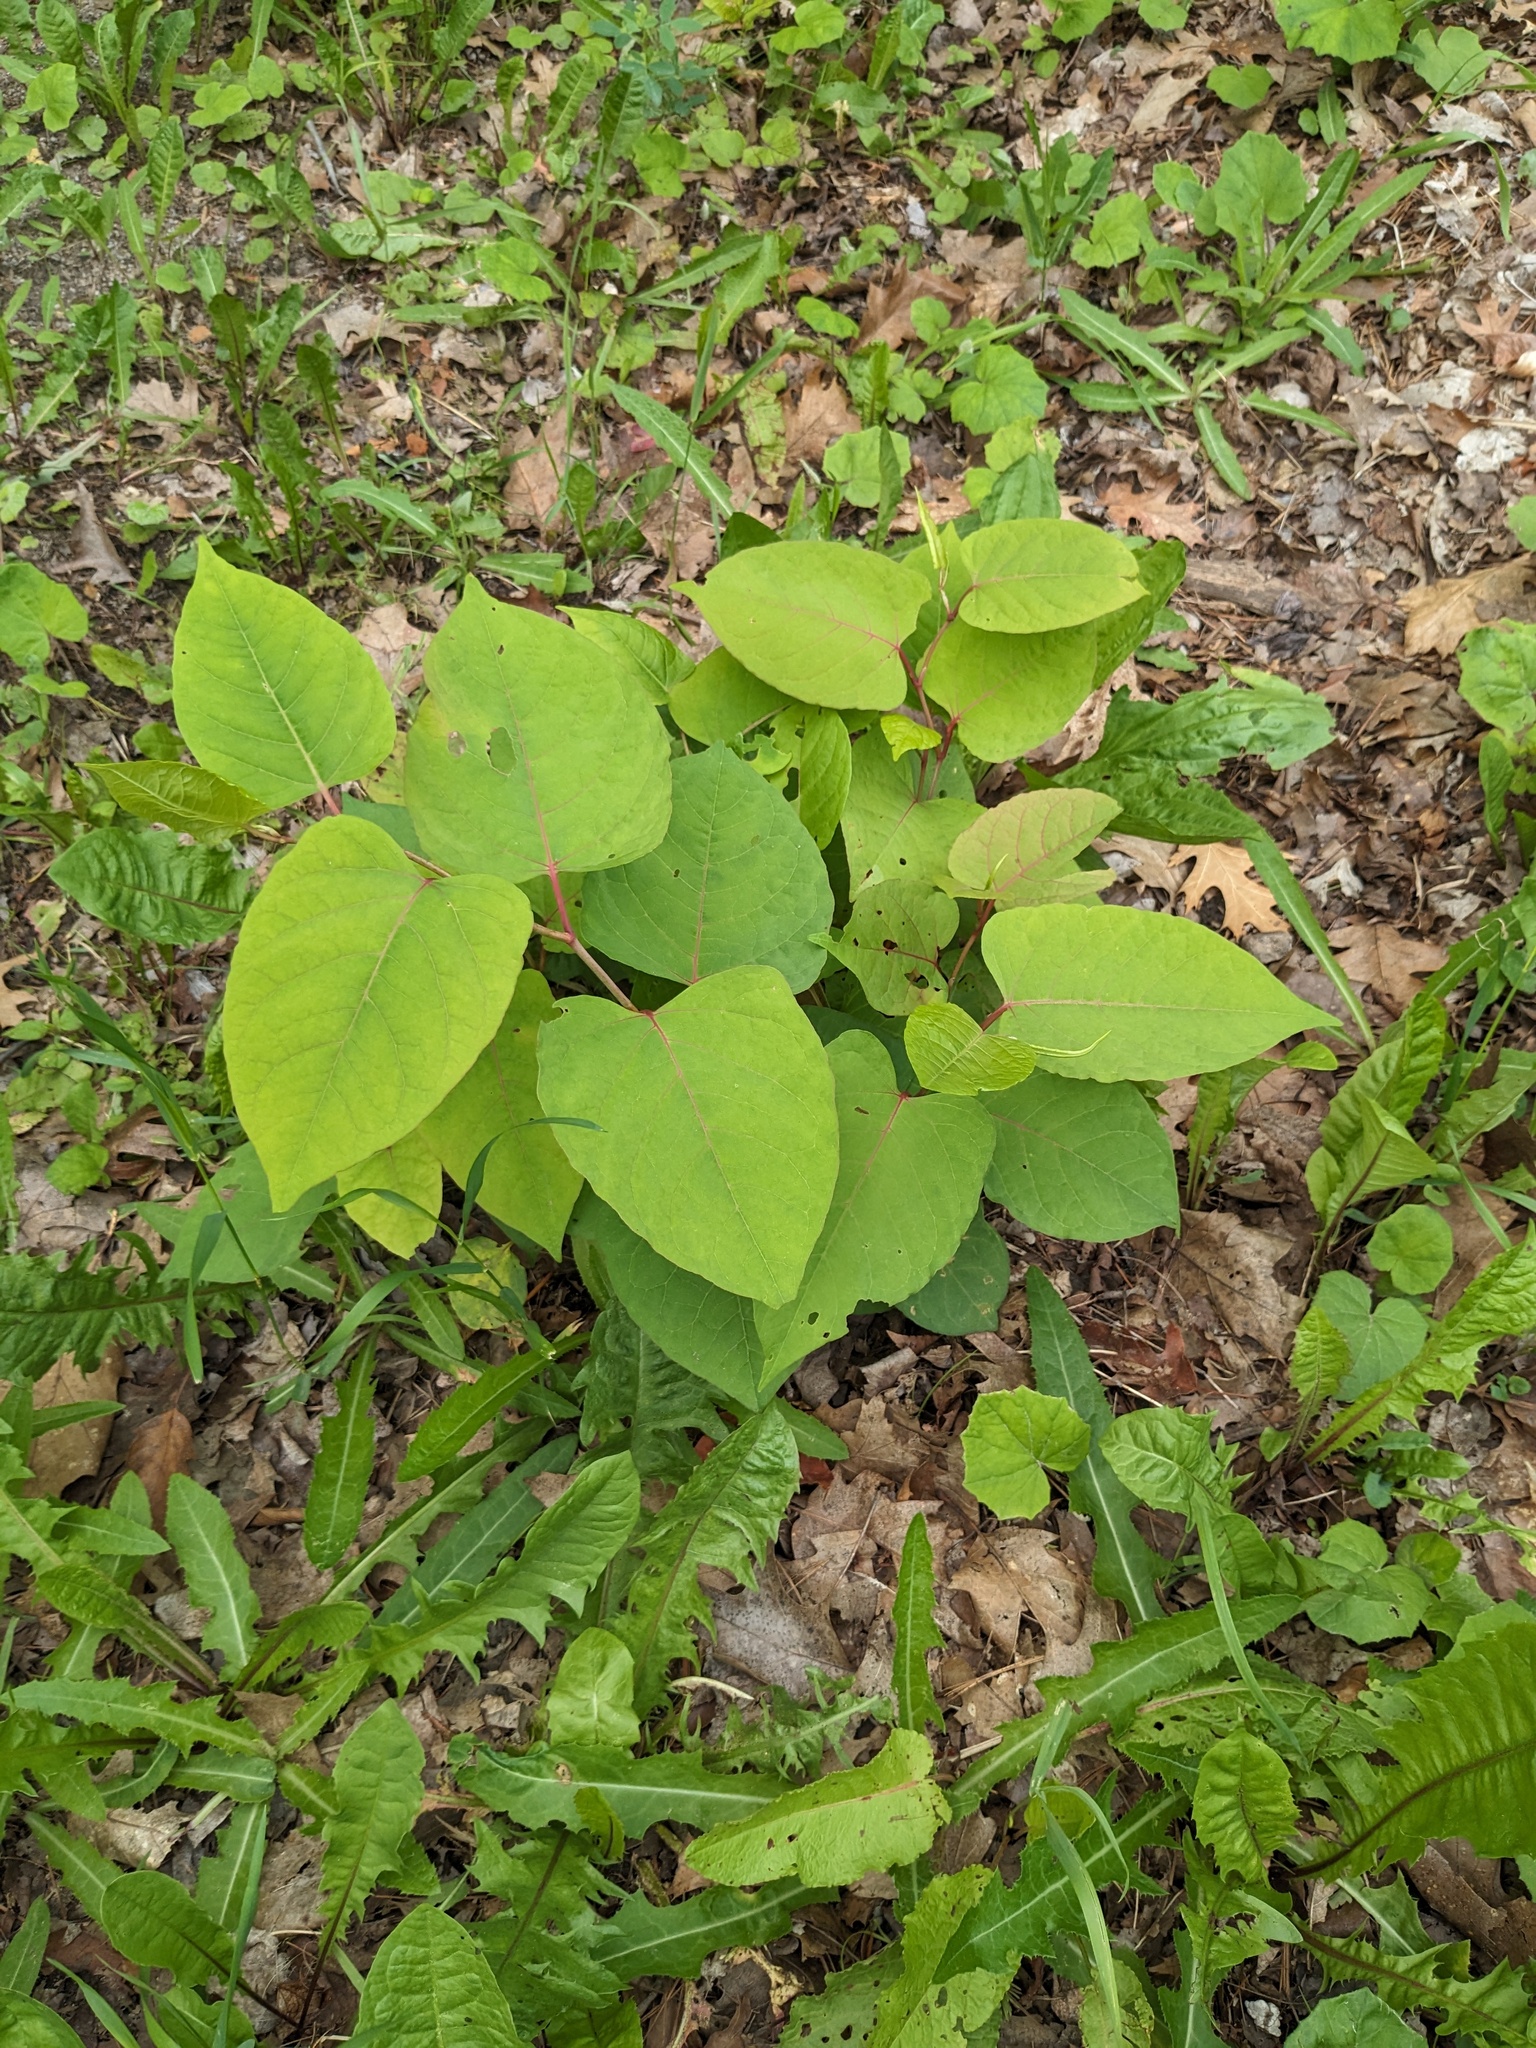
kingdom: Plantae
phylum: Tracheophyta
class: Magnoliopsida
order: Caryophyllales
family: Polygonaceae
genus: Reynoutria
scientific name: Reynoutria japonica
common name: Japanese knotweed
